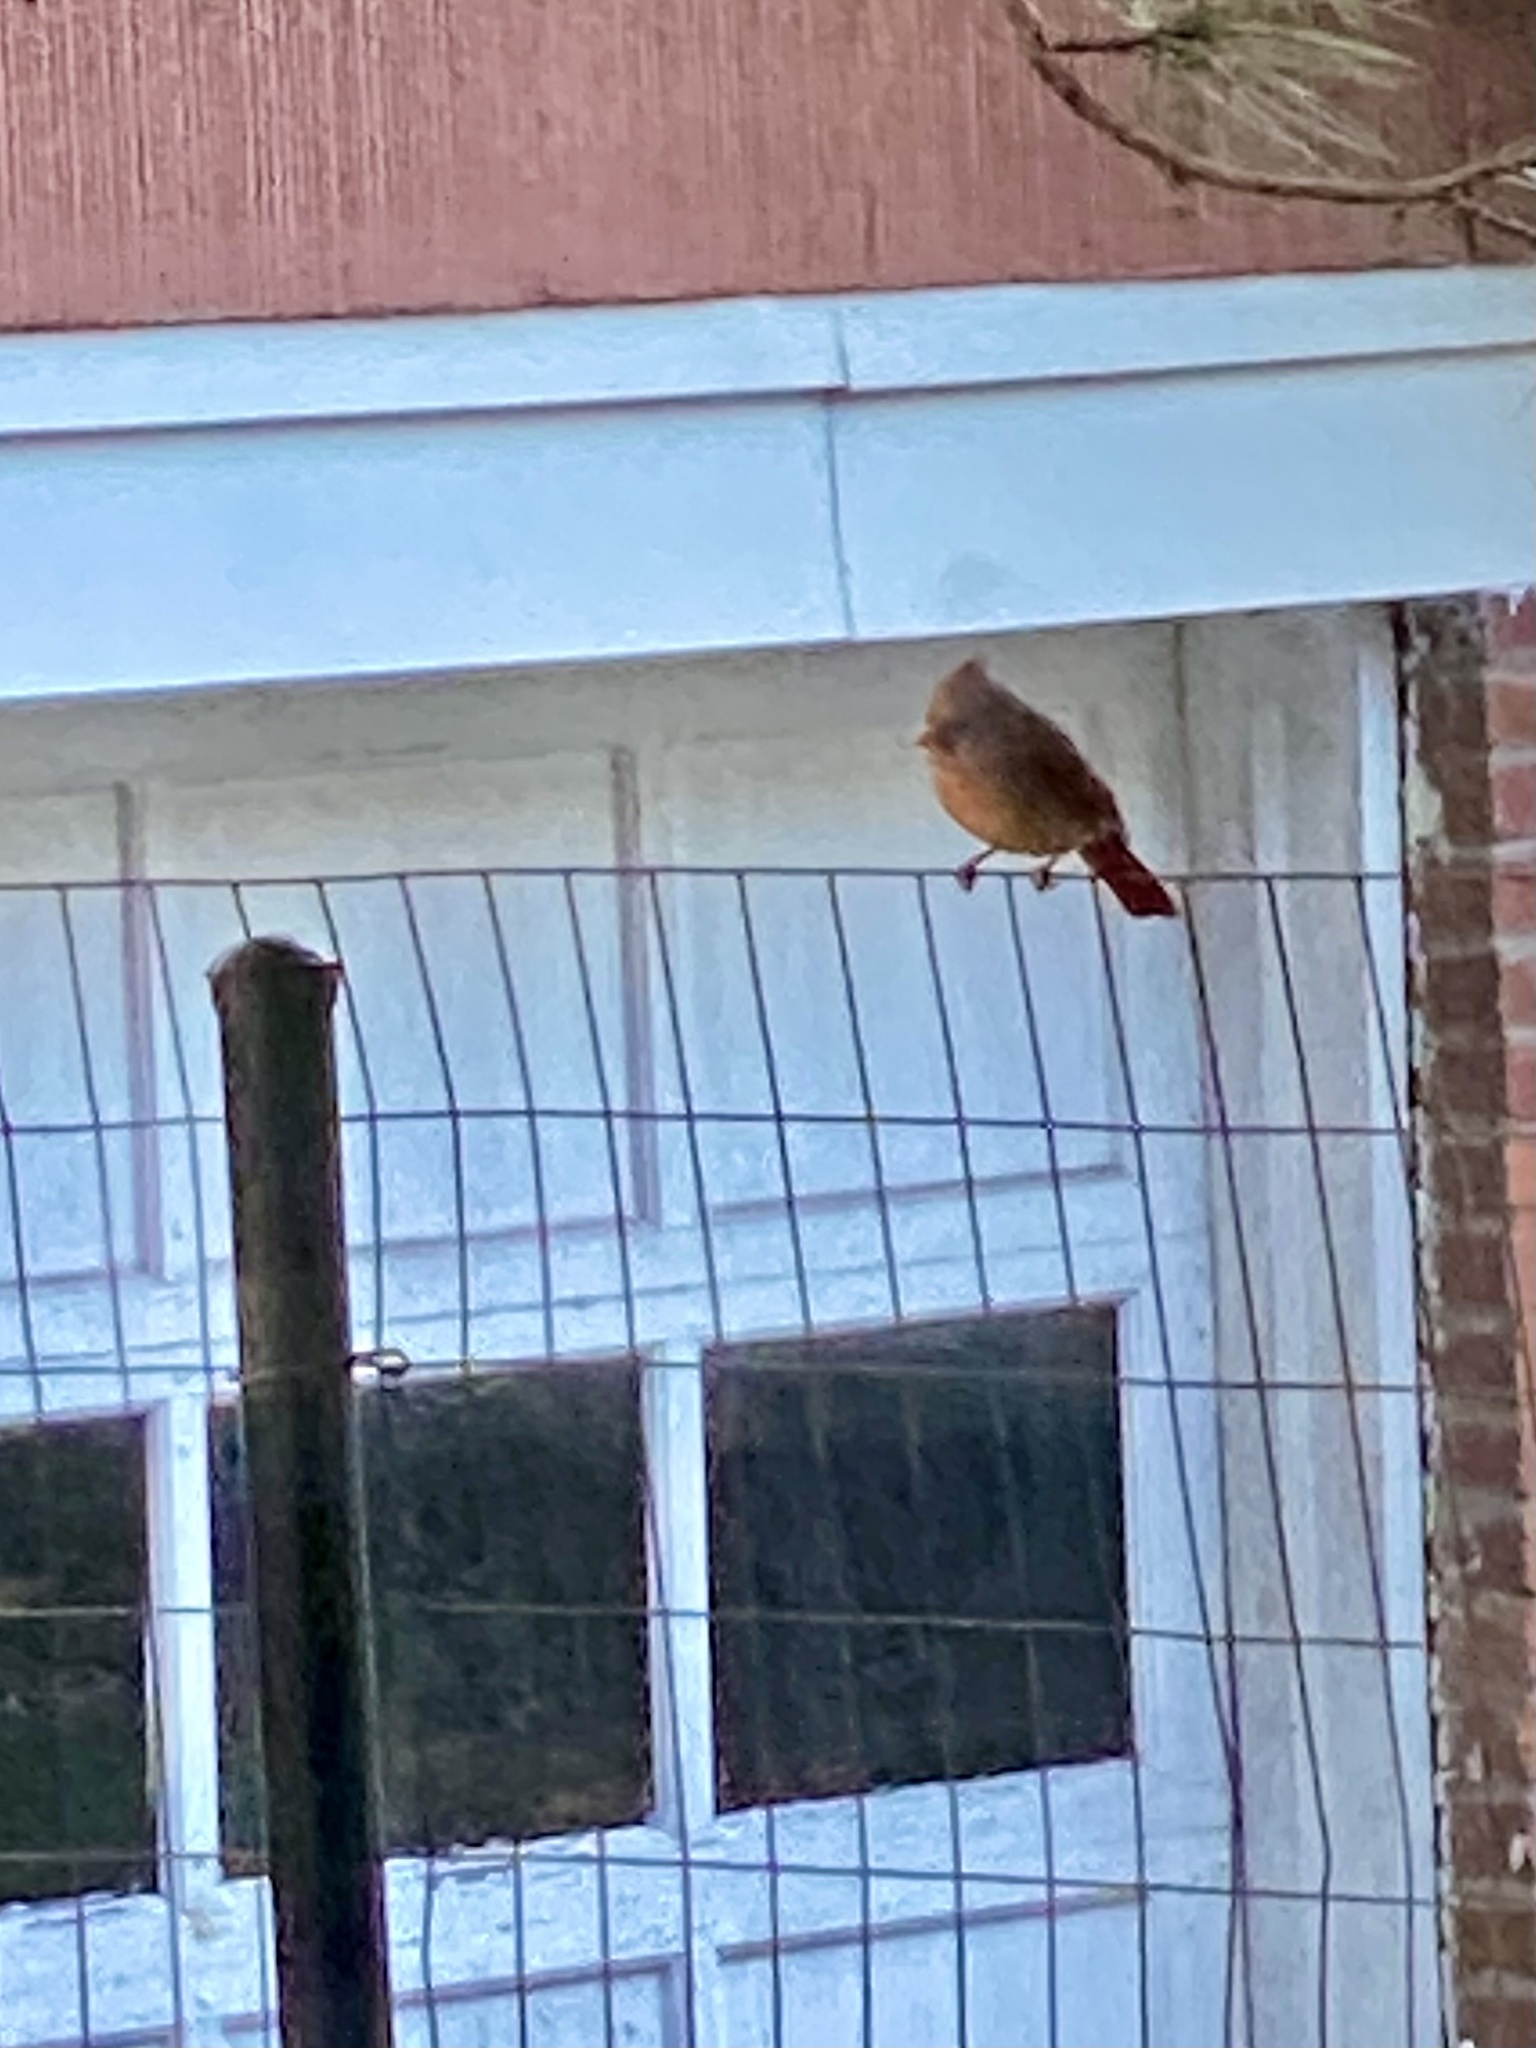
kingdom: Animalia
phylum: Chordata
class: Aves
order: Passeriformes
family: Cardinalidae
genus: Cardinalis
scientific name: Cardinalis cardinalis
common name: Northern cardinal
